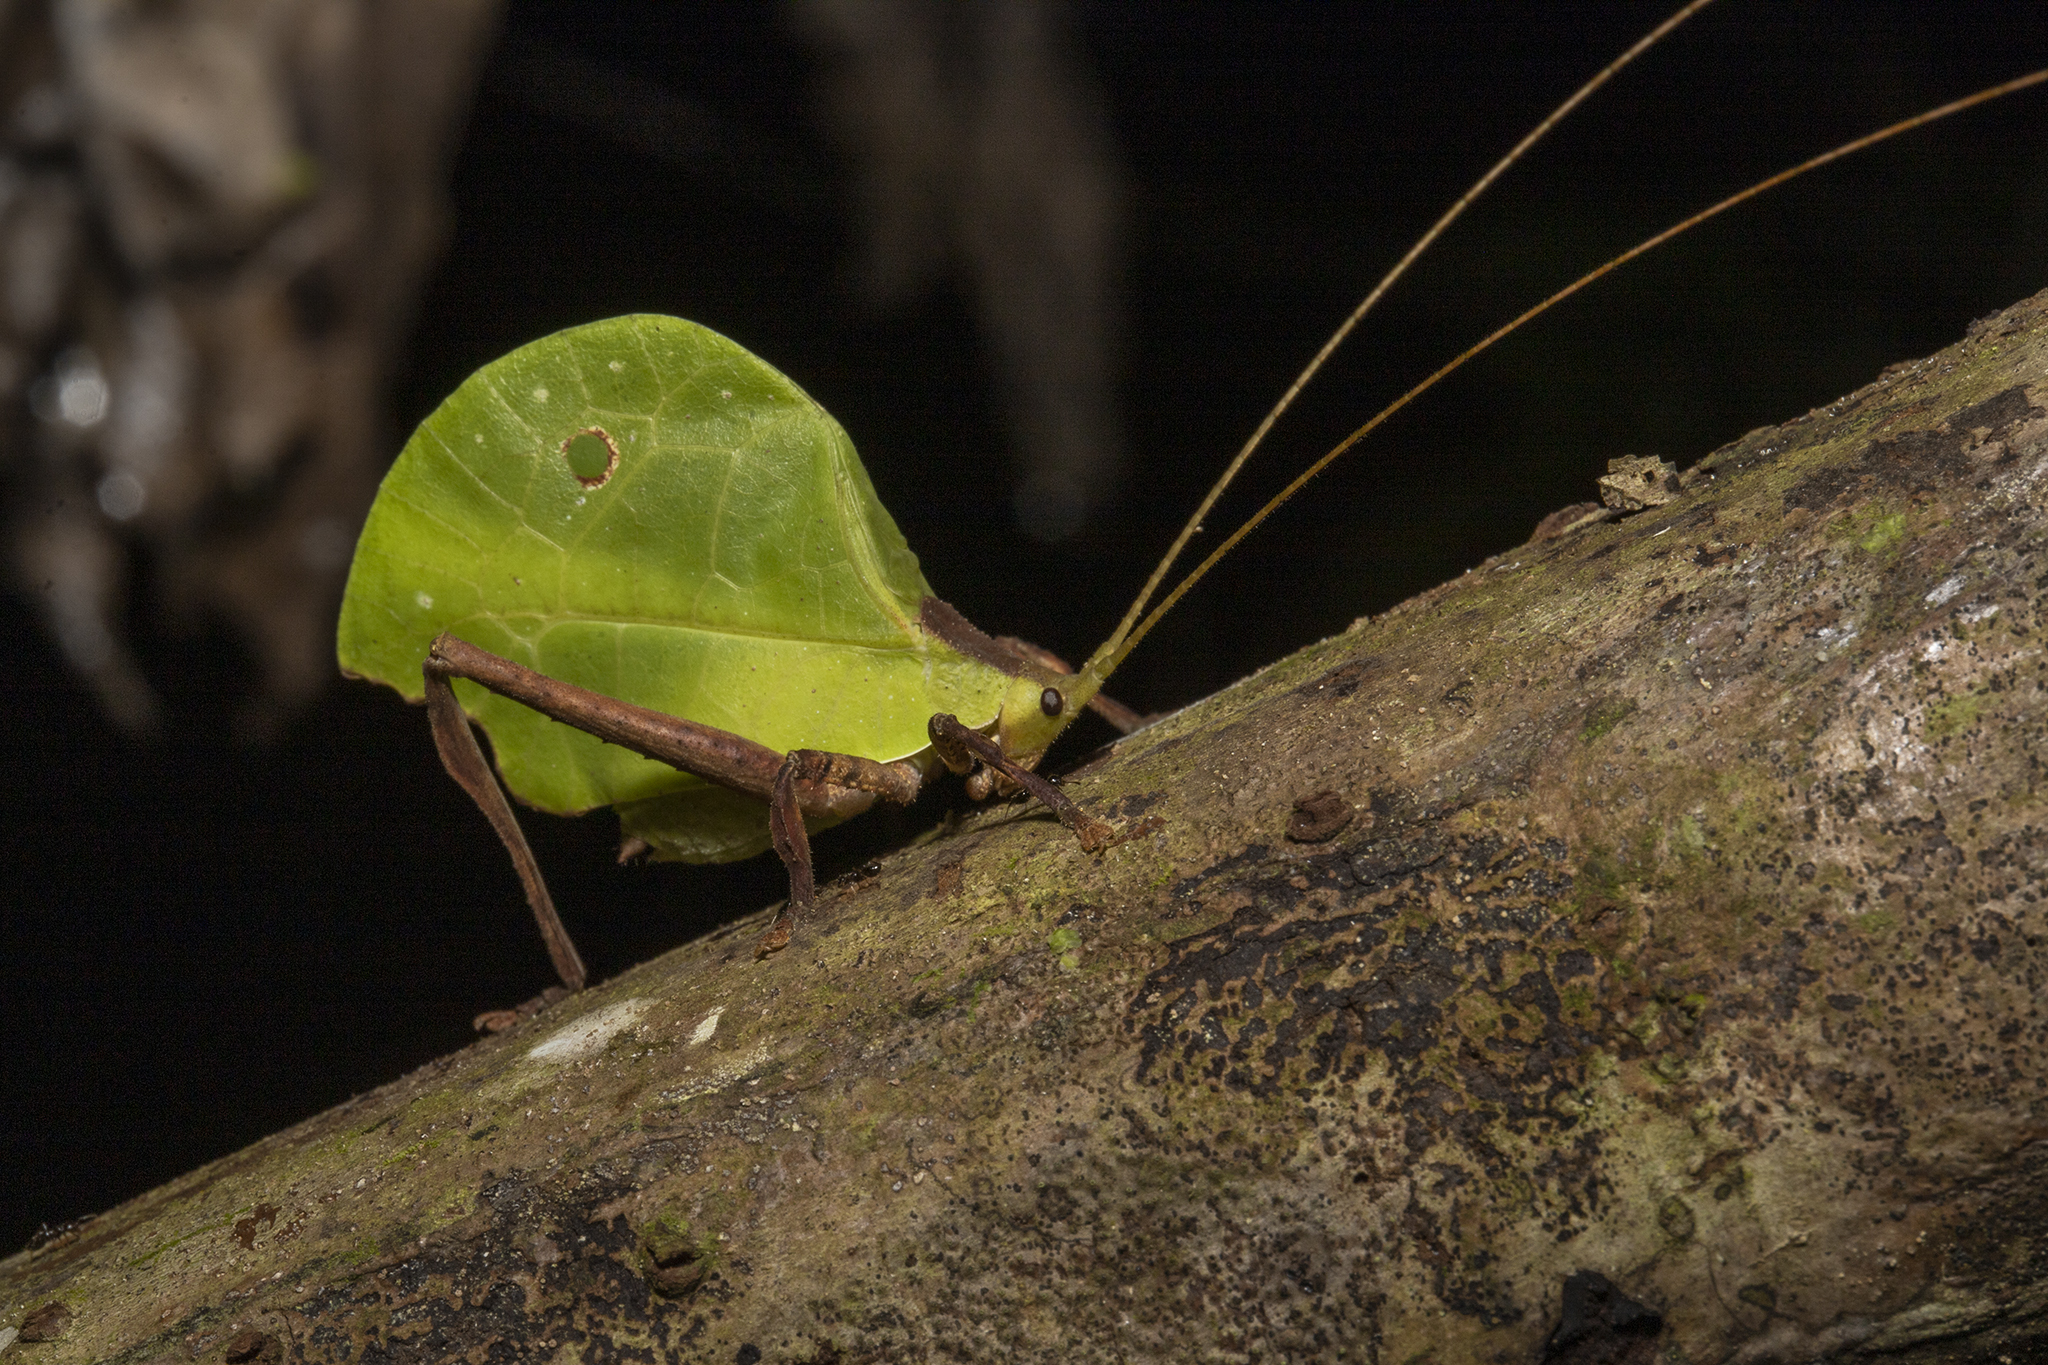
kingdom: Animalia
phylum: Arthropoda
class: Insecta
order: Orthoptera
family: Tettigoniidae
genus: Typophyllum
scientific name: Typophyllum mortuifolium
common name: Common little walking leaf
